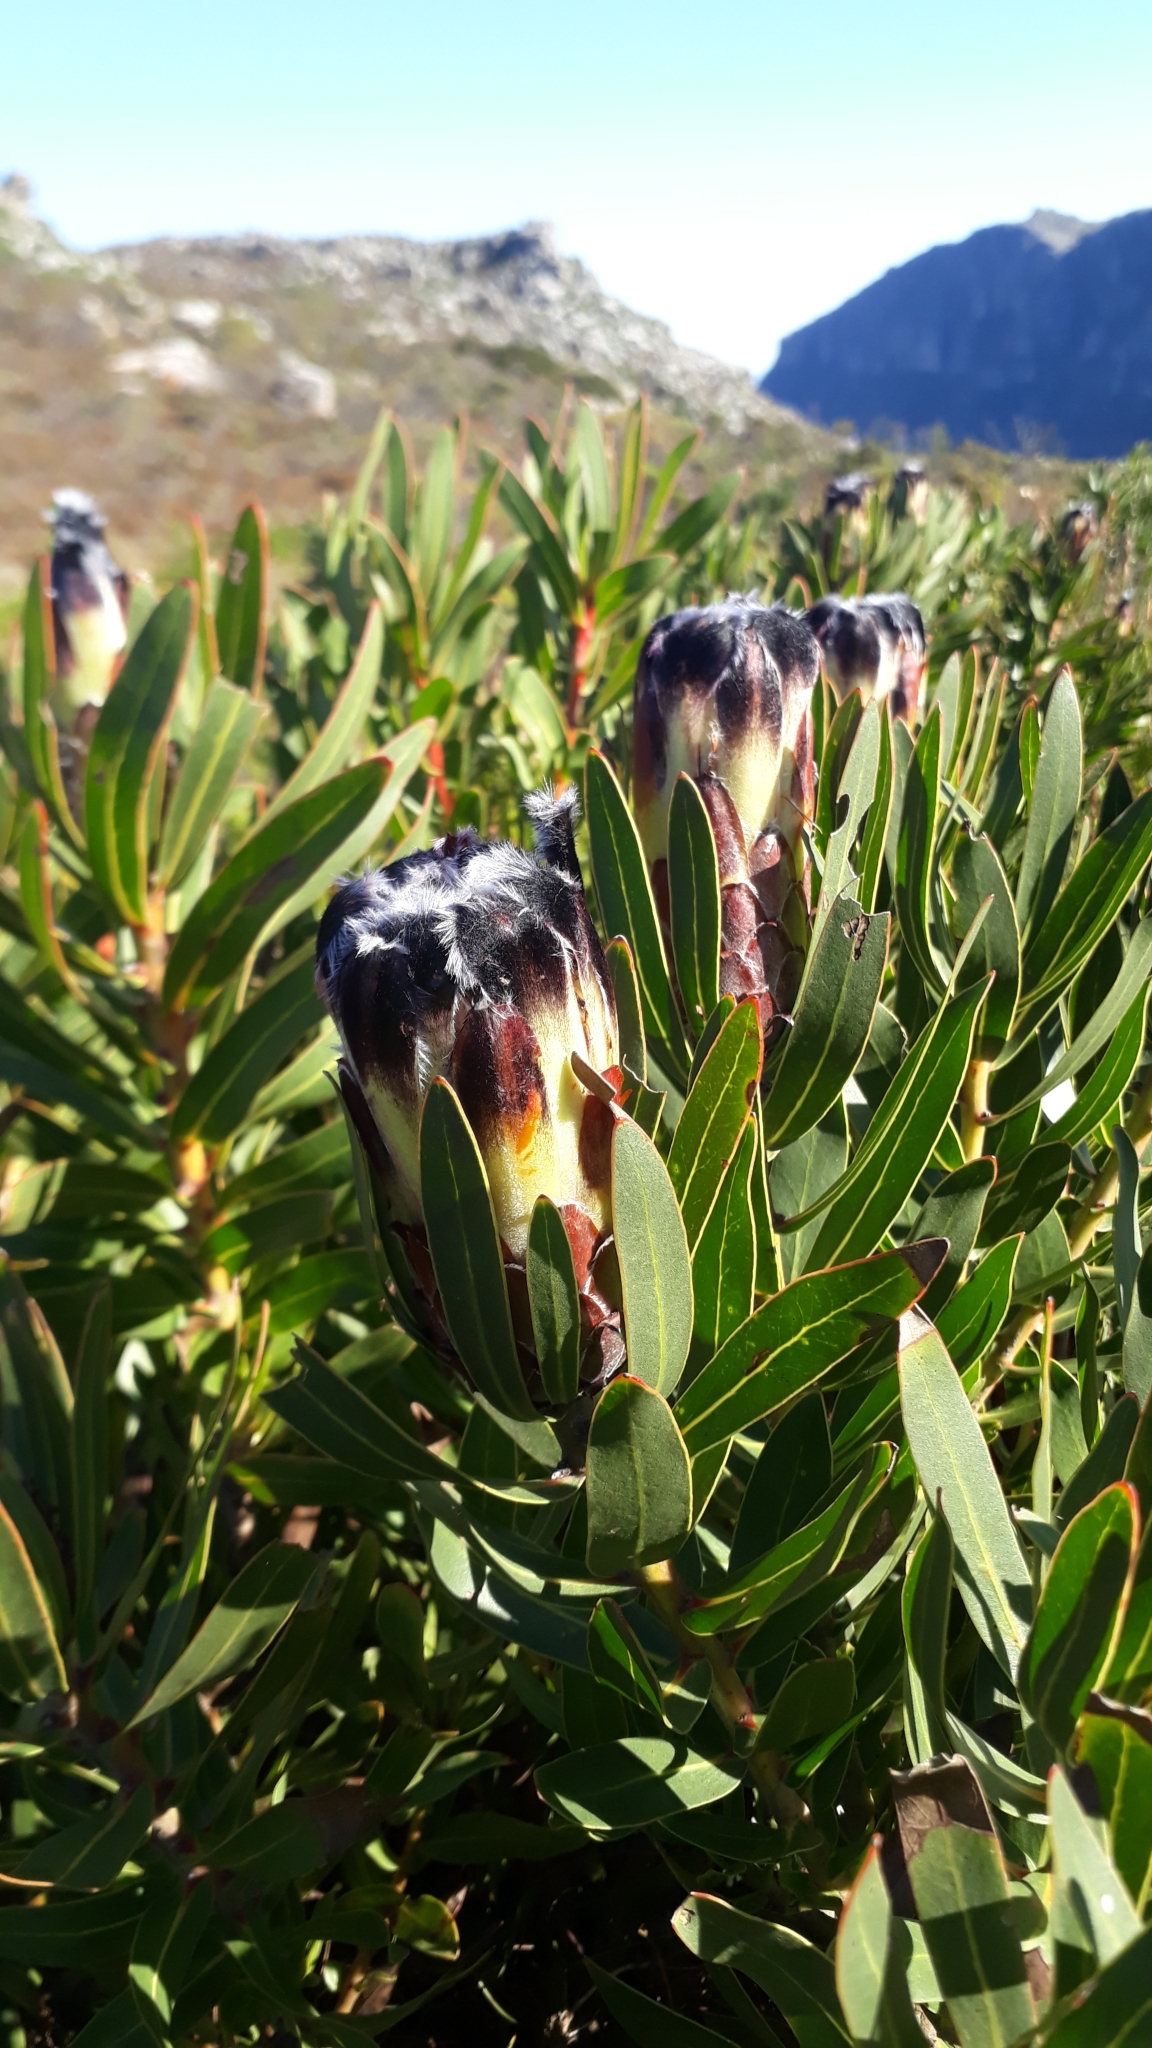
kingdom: Plantae
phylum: Tracheophyta
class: Magnoliopsida
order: Proteales
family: Proteaceae
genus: Protea
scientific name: Protea lepidocarpodendron
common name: Black-bearded protea
